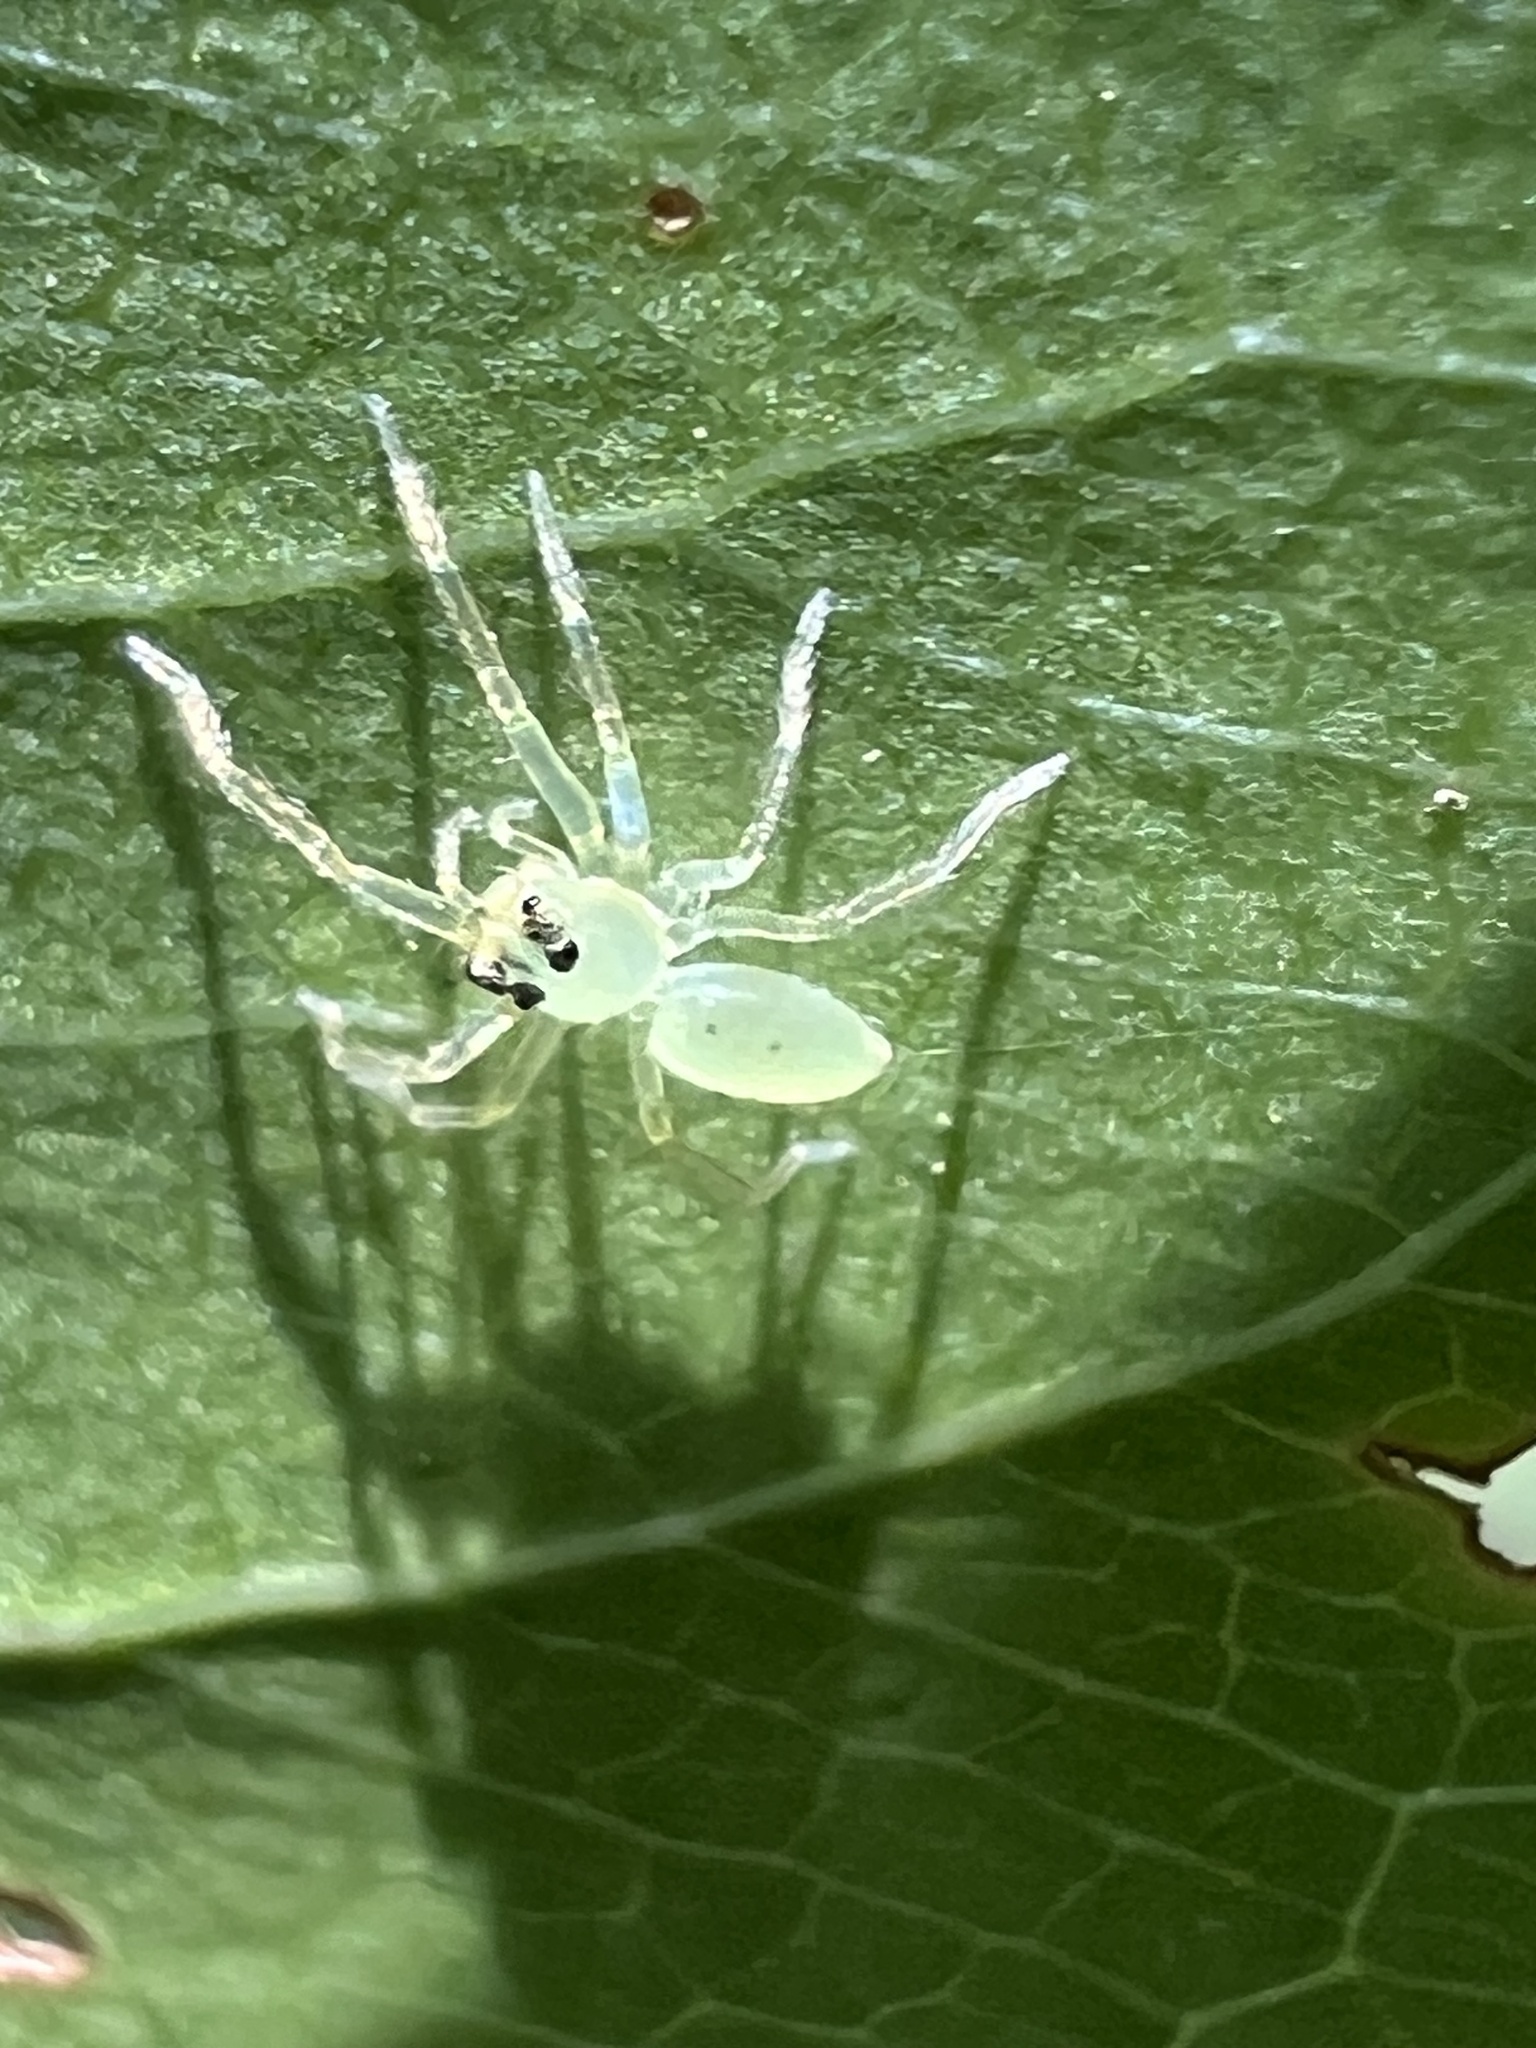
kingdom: Animalia
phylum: Arthropoda
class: Arachnida
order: Araneae
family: Salticidae
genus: Lyssomanes
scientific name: Lyssomanes viridis
